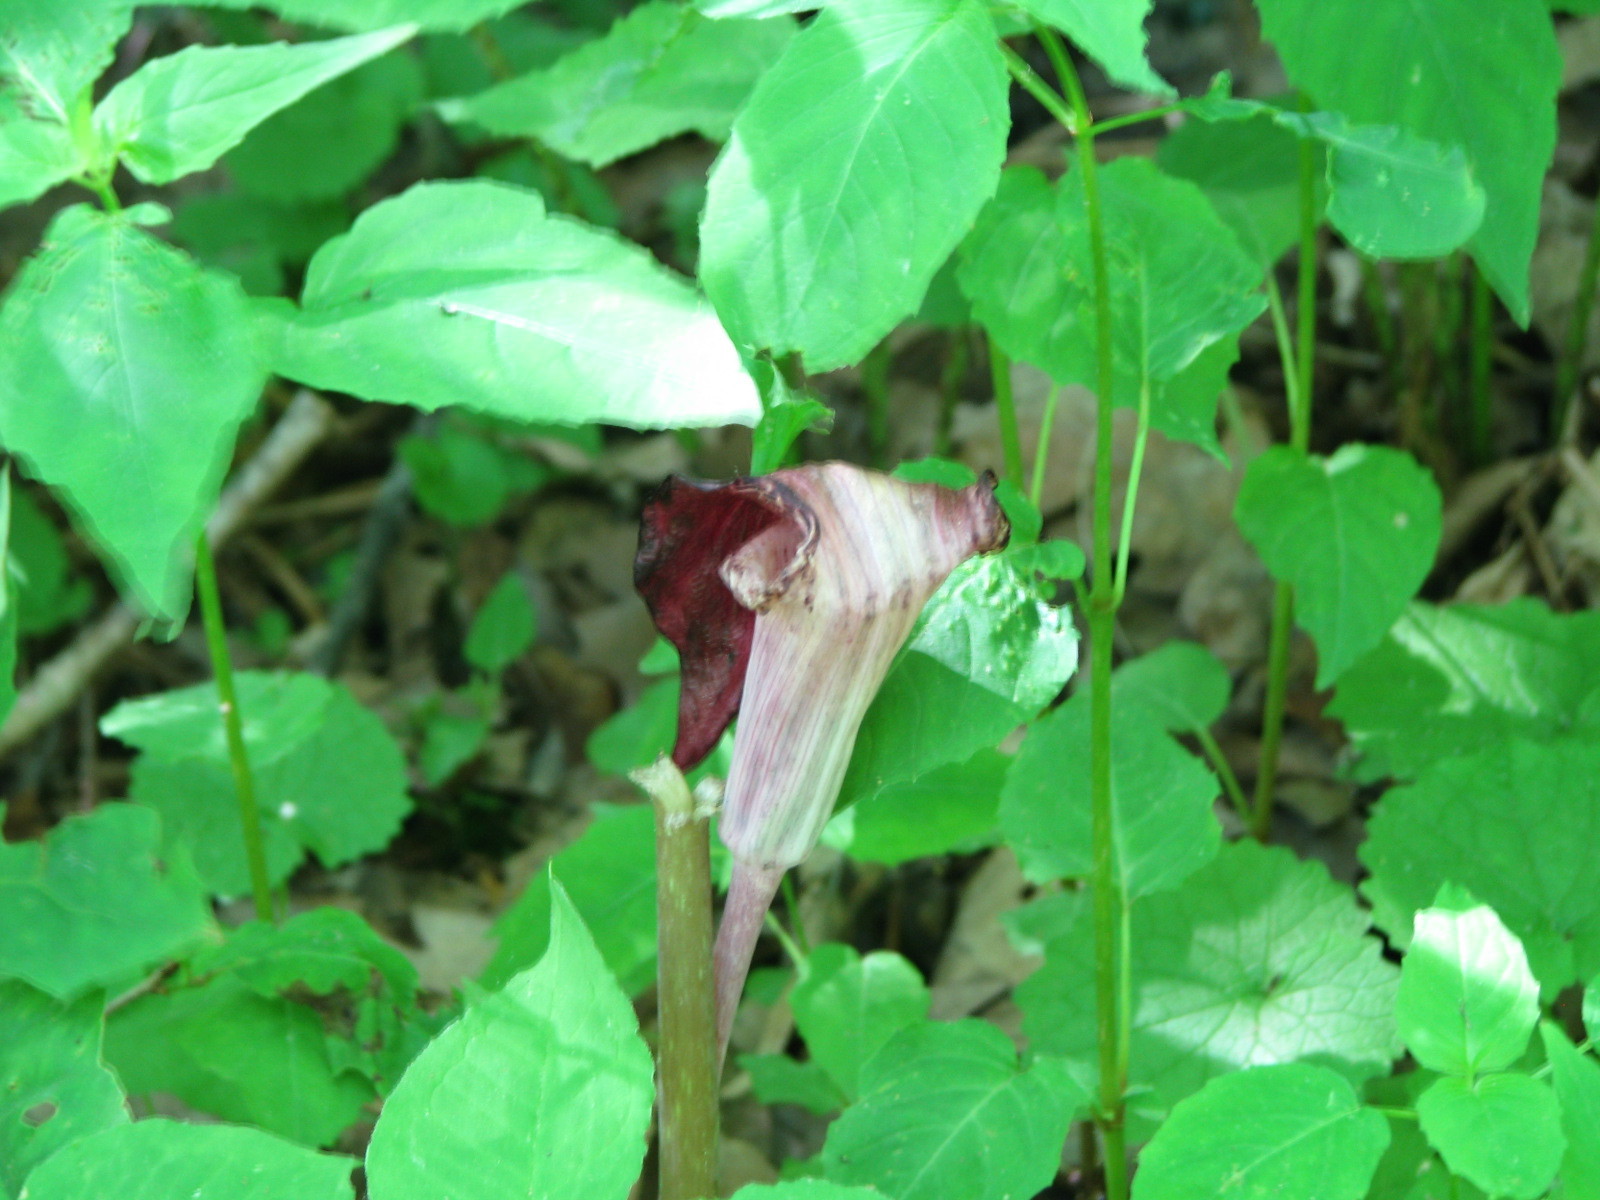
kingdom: Plantae
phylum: Tracheophyta
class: Liliopsida
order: Alismatales
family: Araceae
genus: Arisaema
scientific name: Arisaema triphyllum
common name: Jack-in-the-pulpit
